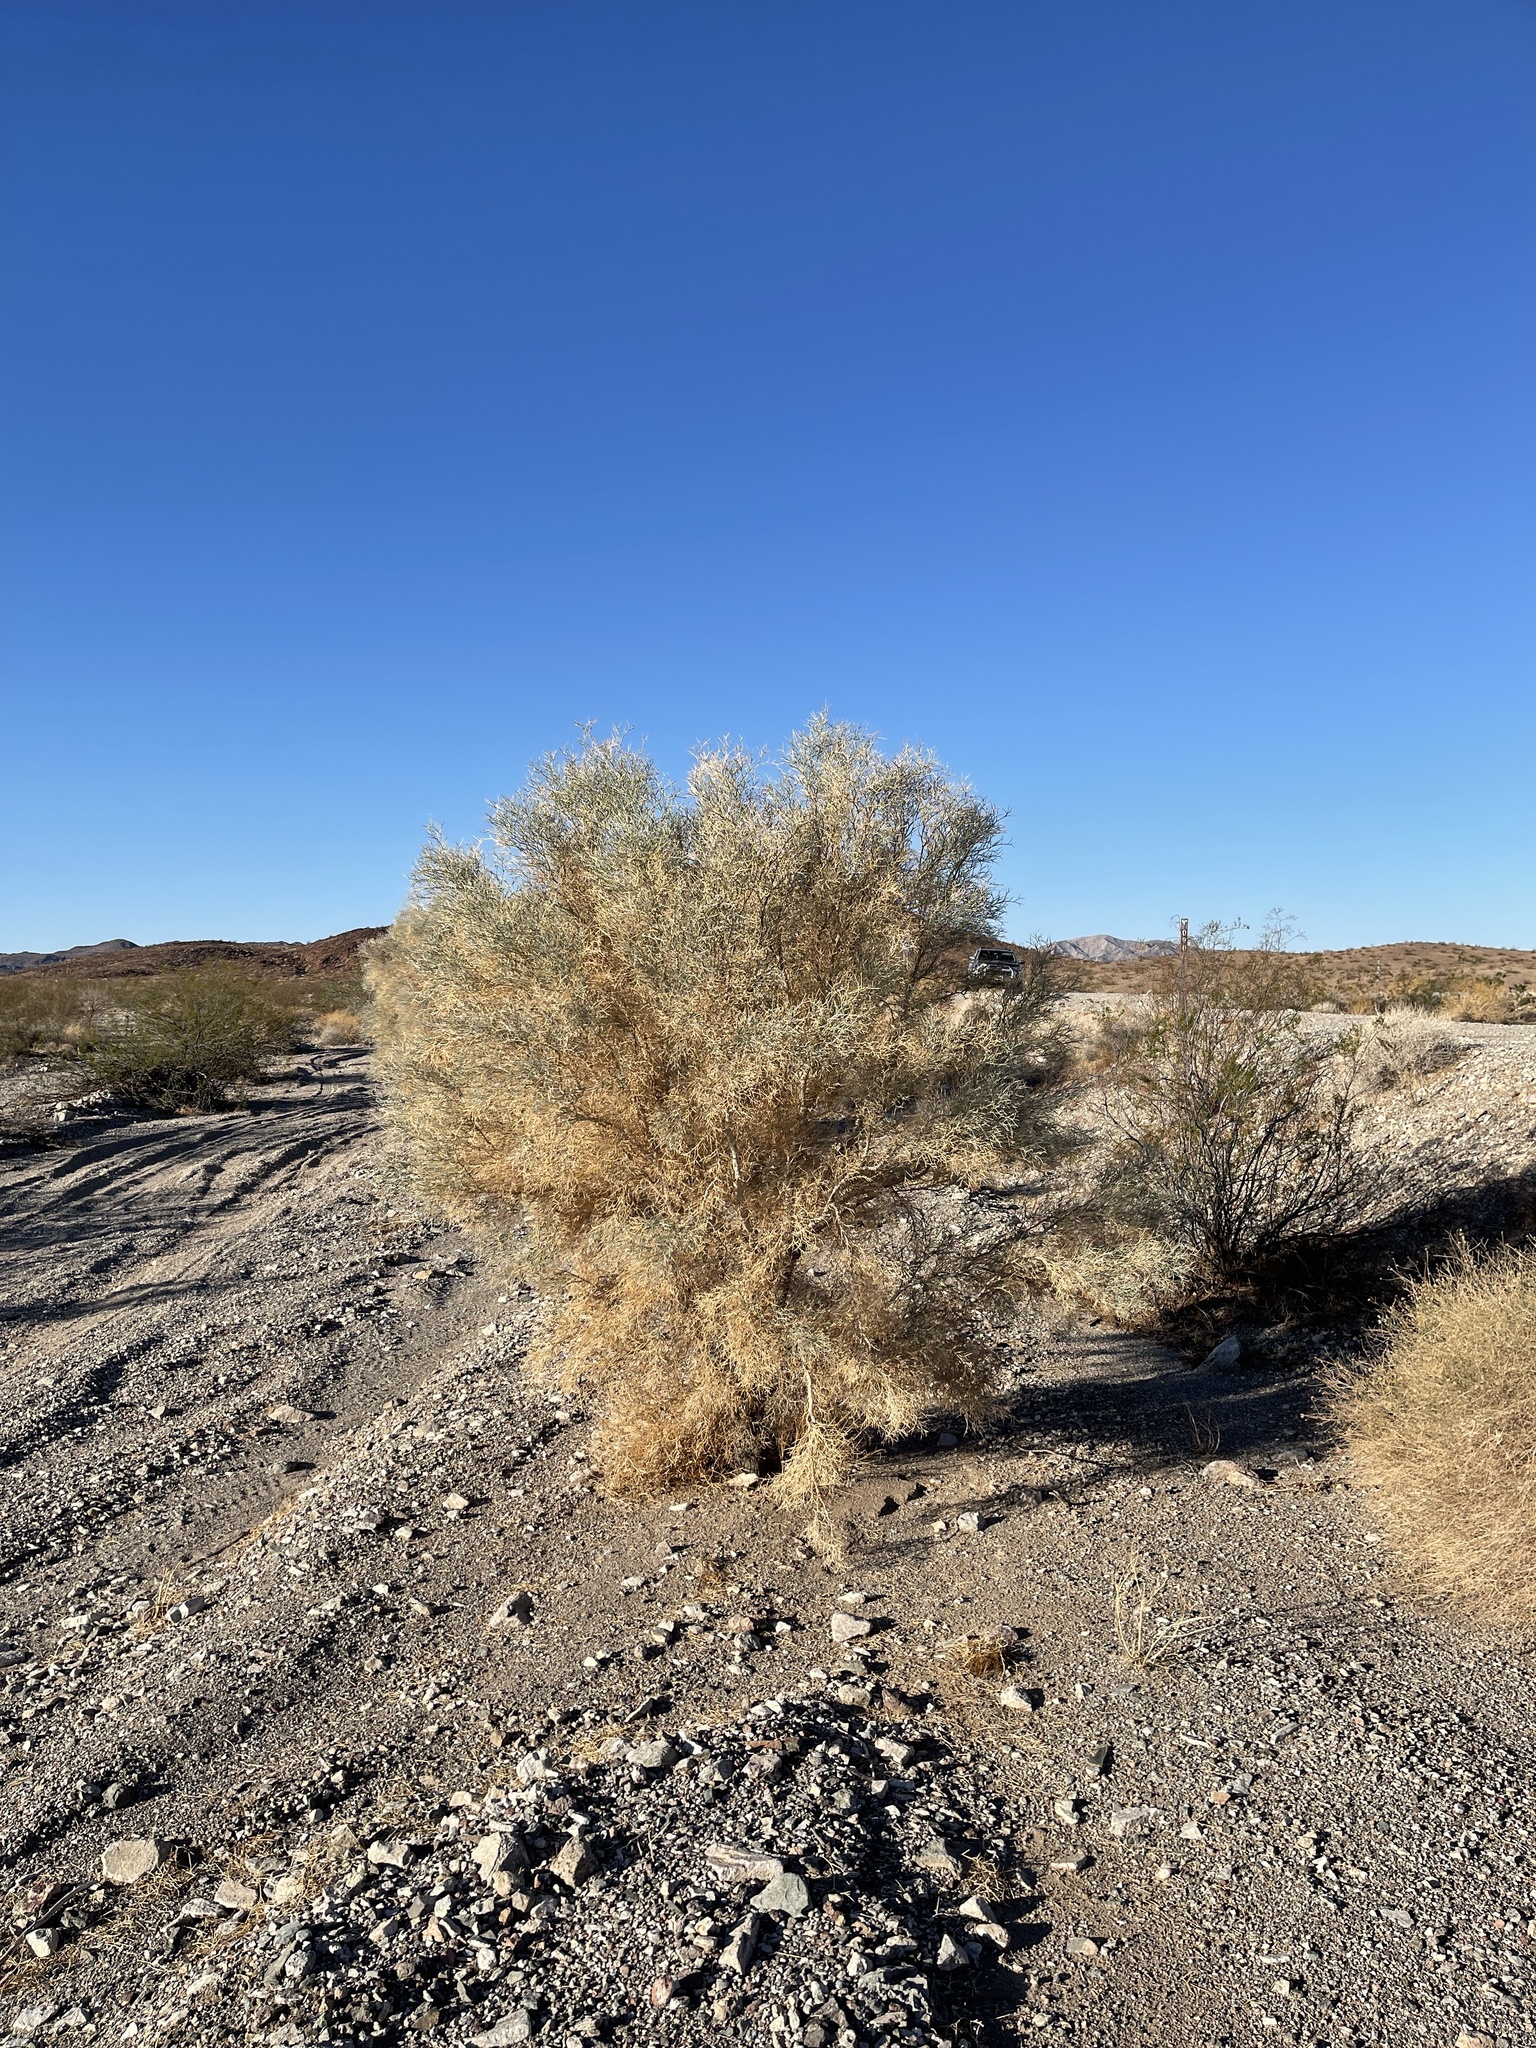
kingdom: Plantae
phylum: Tracheophyta
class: Magnoliopsida
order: Fabales
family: Fabaceae
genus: Psorothamnus
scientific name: Psorothamnus spinosus
